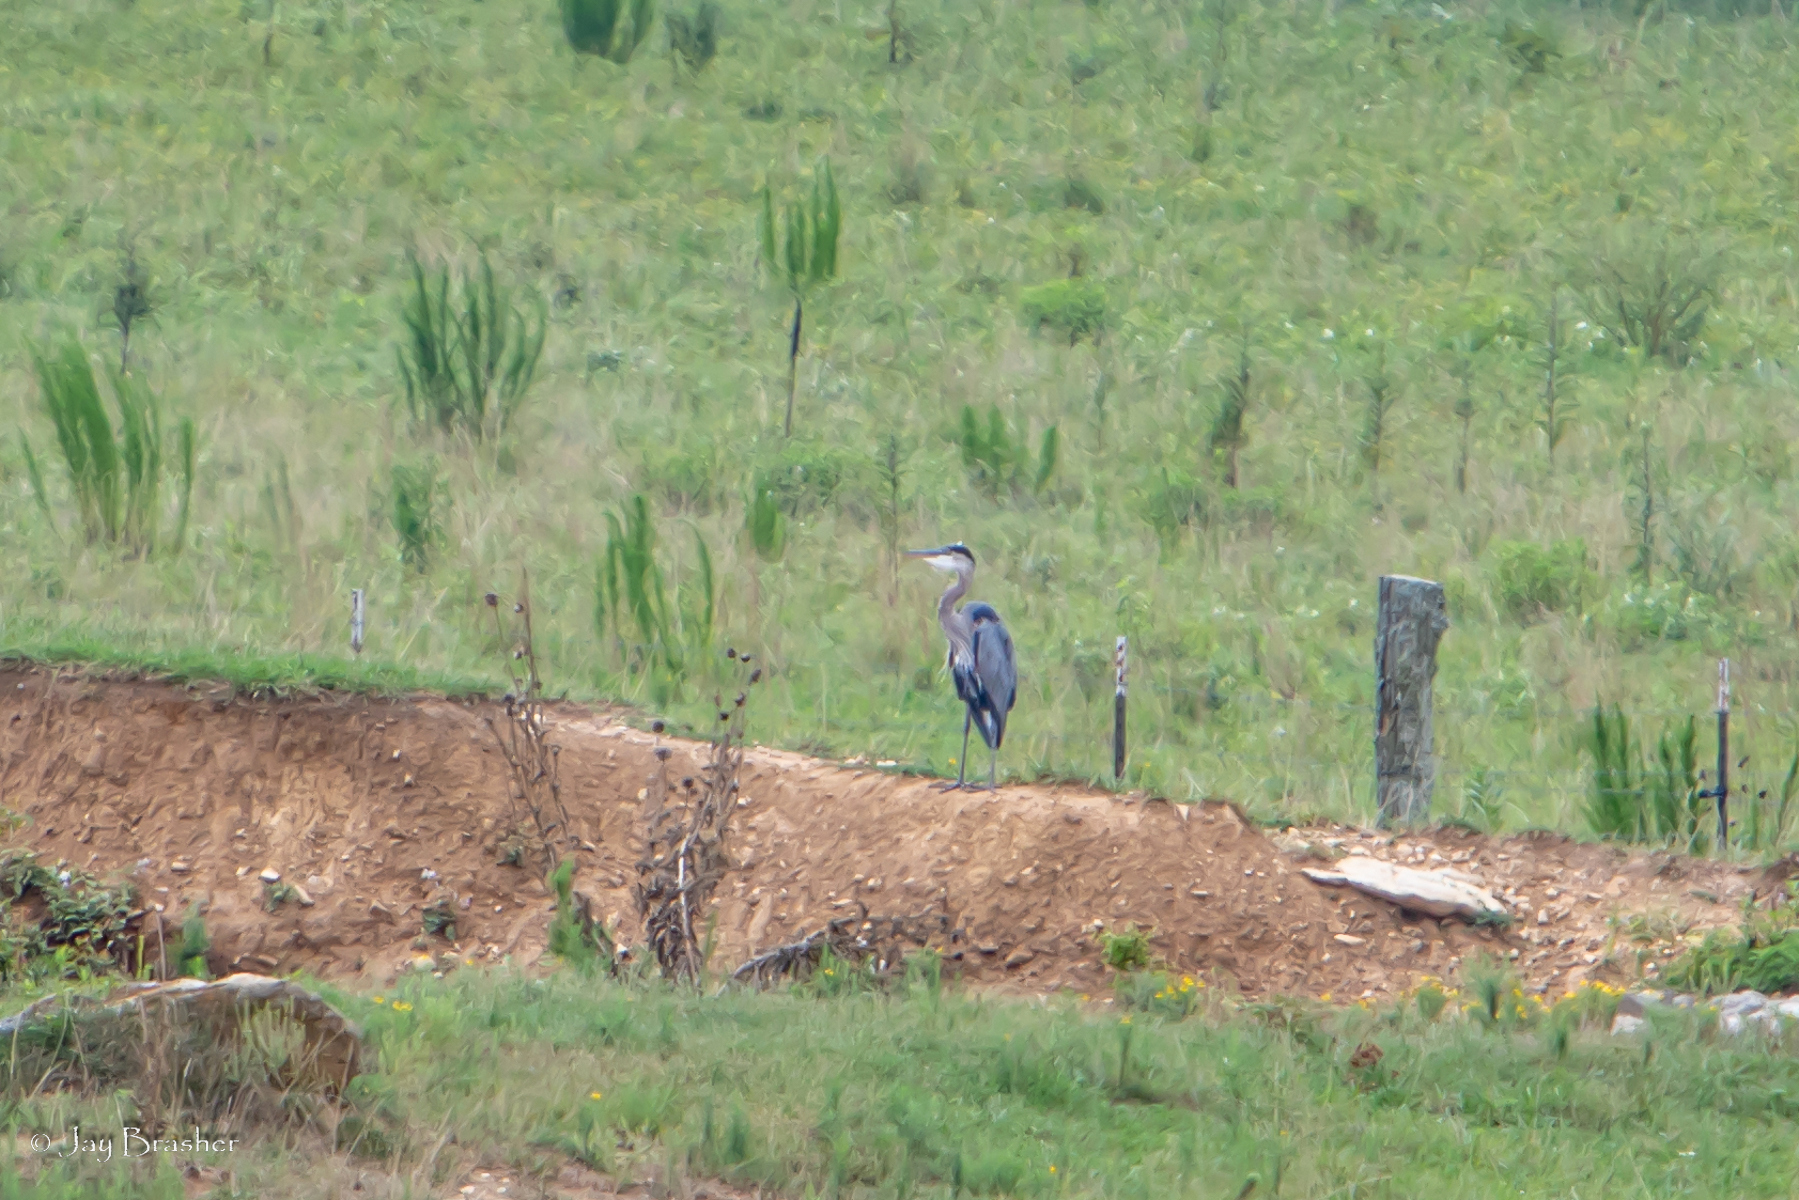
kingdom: Animalia
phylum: Chordata
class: Aves
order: Pelecaniformes
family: Ardeidae
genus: Ardea
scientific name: Ardea herodias
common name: Great blue heron
